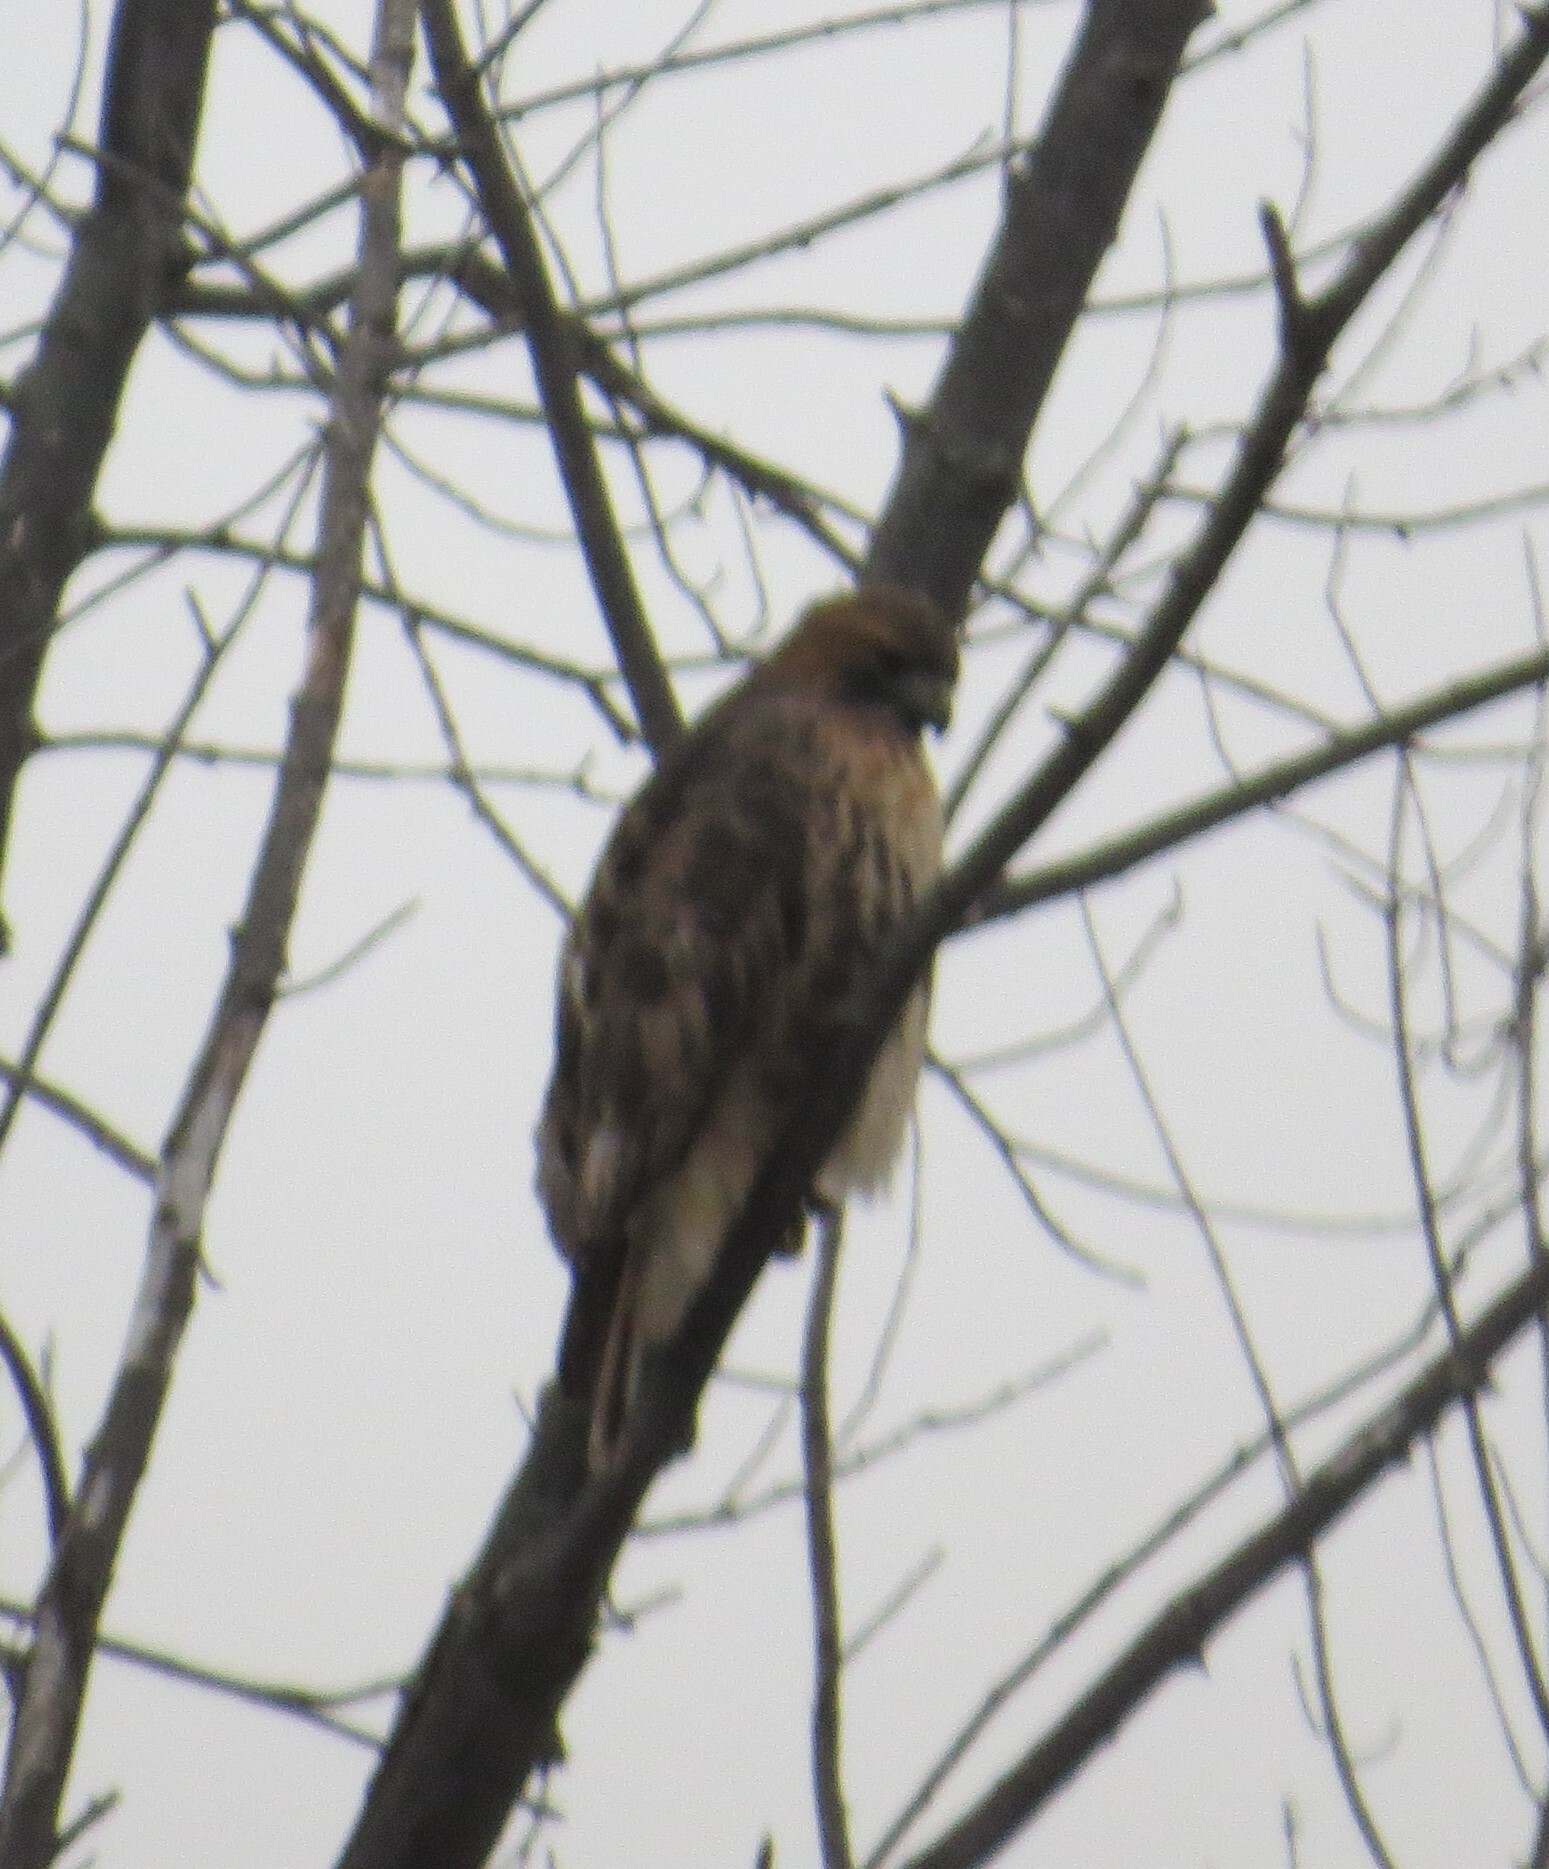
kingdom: Animalia
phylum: Chordata
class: Aves
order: Accipitriformes
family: Accipitridae
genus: Buteo
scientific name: Buteo jamaicensis
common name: Red-tailed hawk
